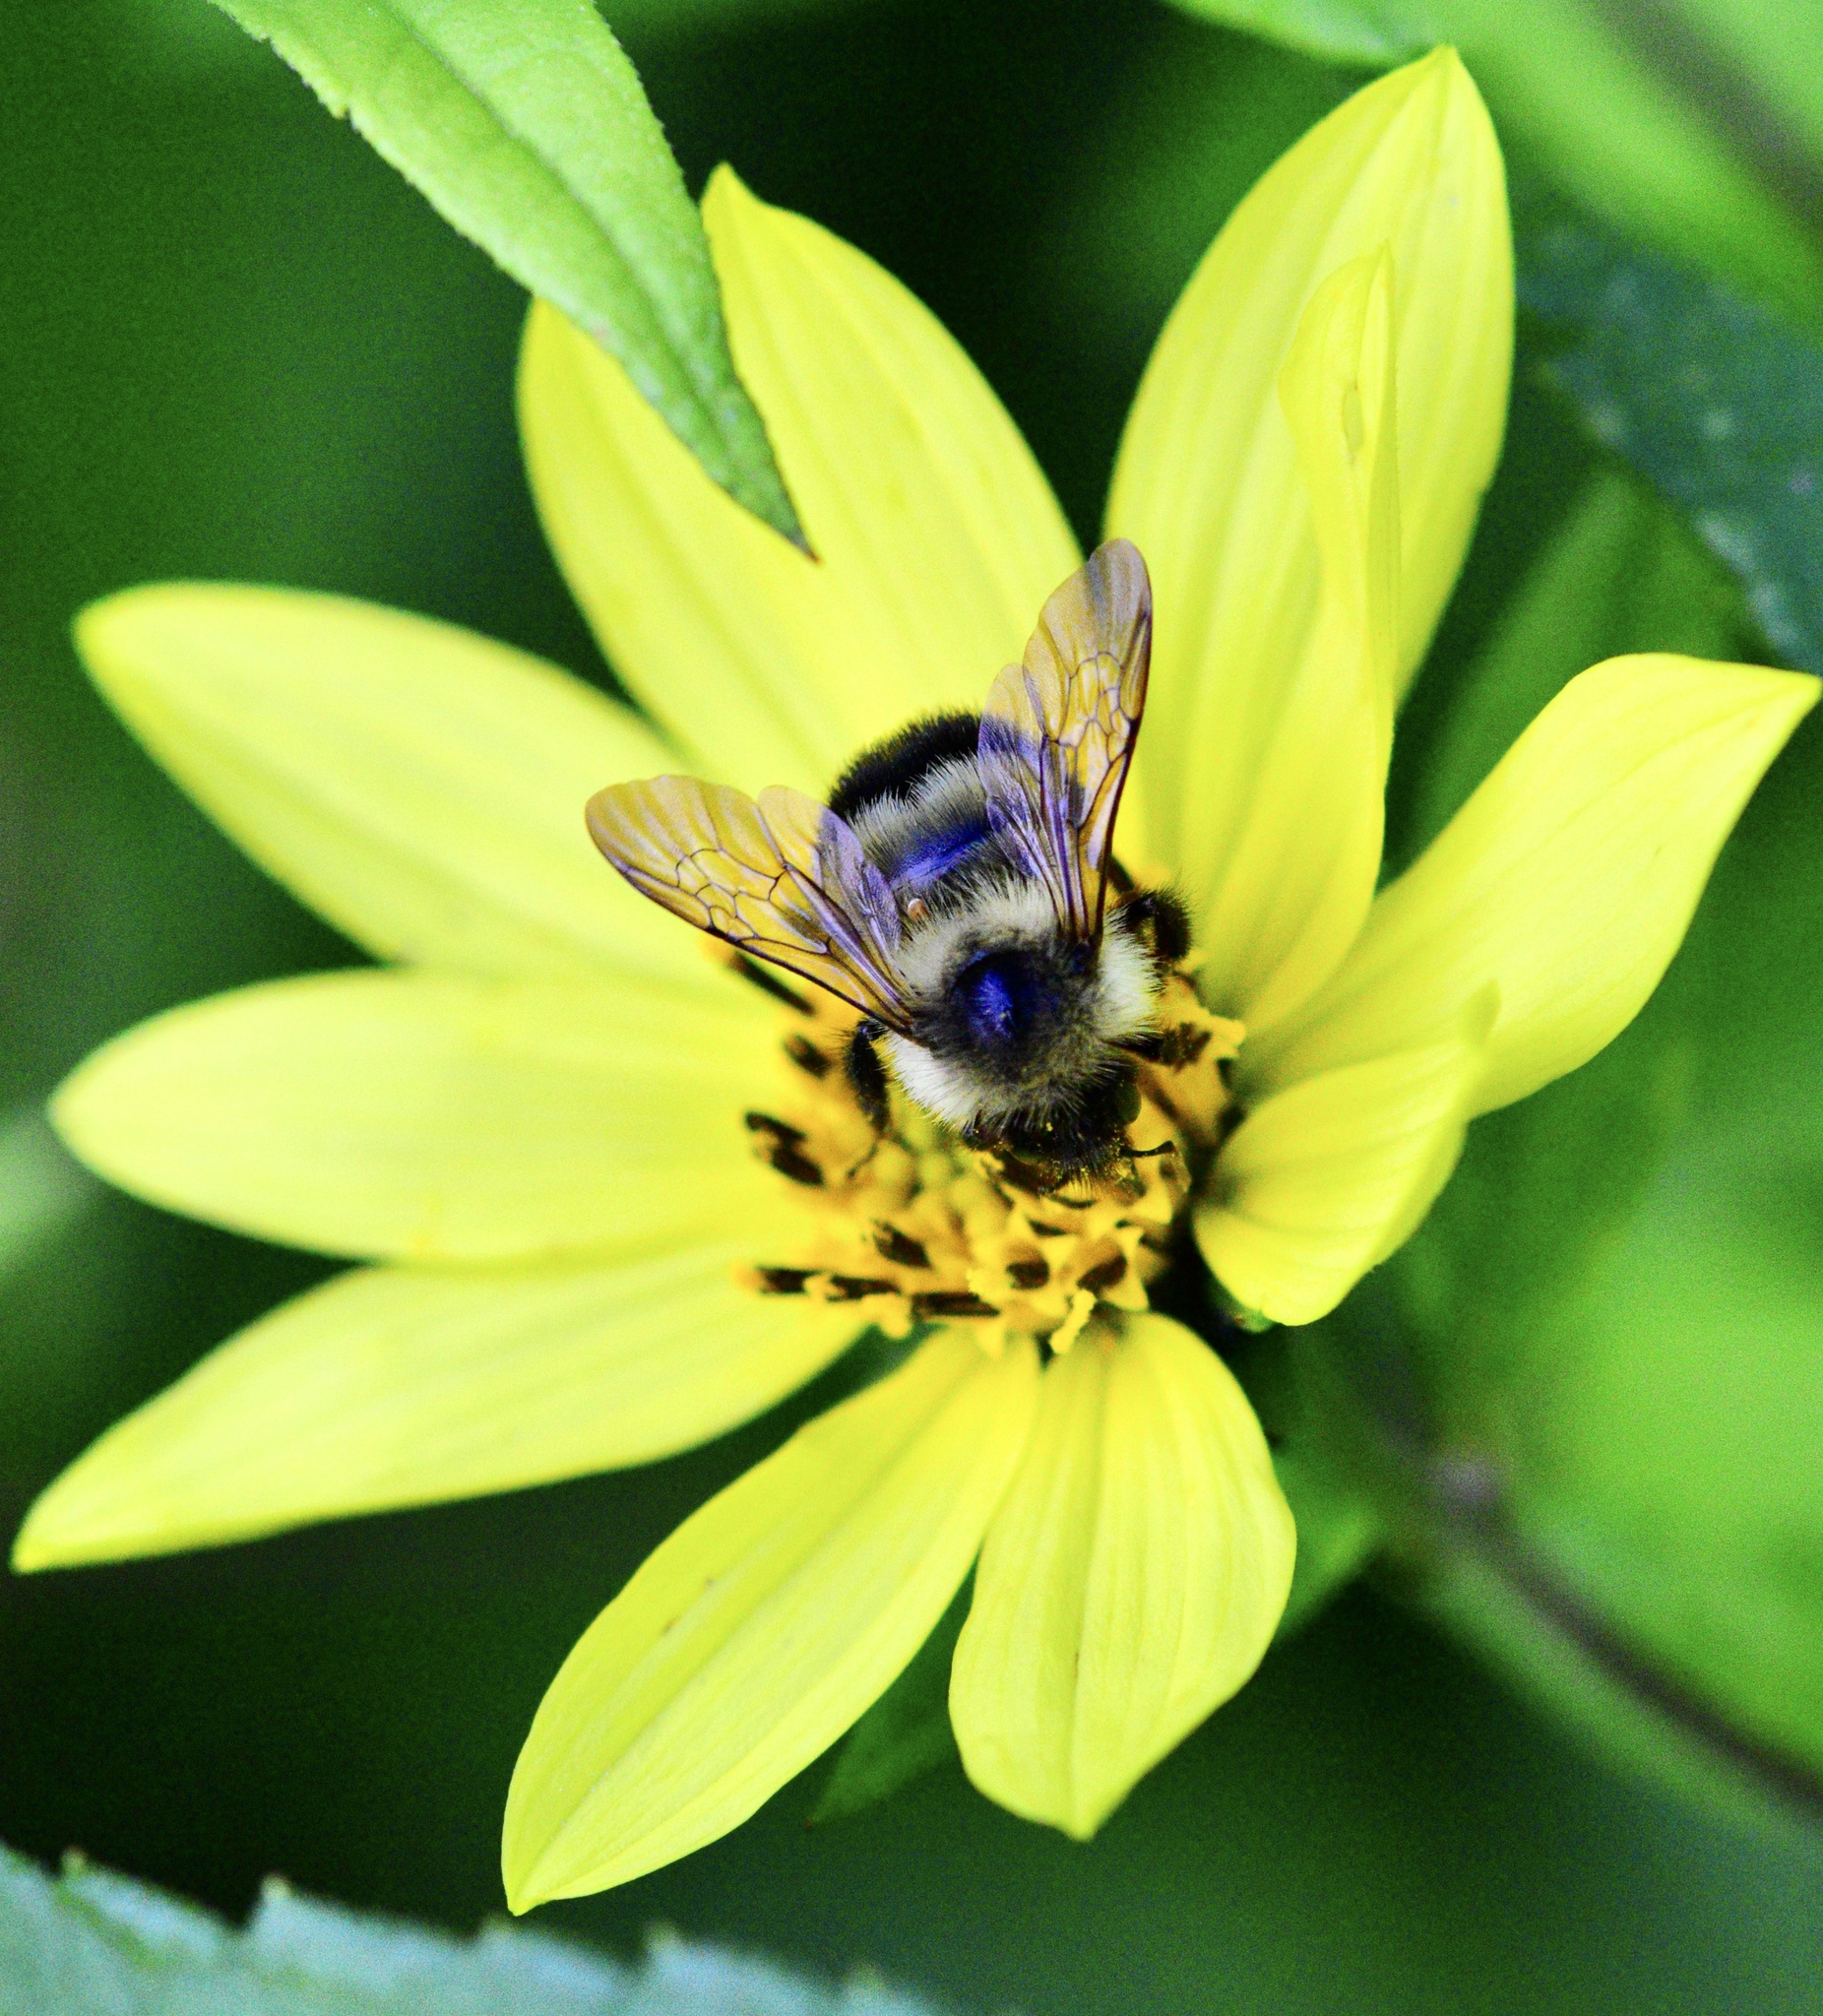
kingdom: Animalia
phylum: Arthropoda
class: Insecta
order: Hymenoptera
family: Apidae
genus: Bombus
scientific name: Bombus vagans
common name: Half-black bumble bee
